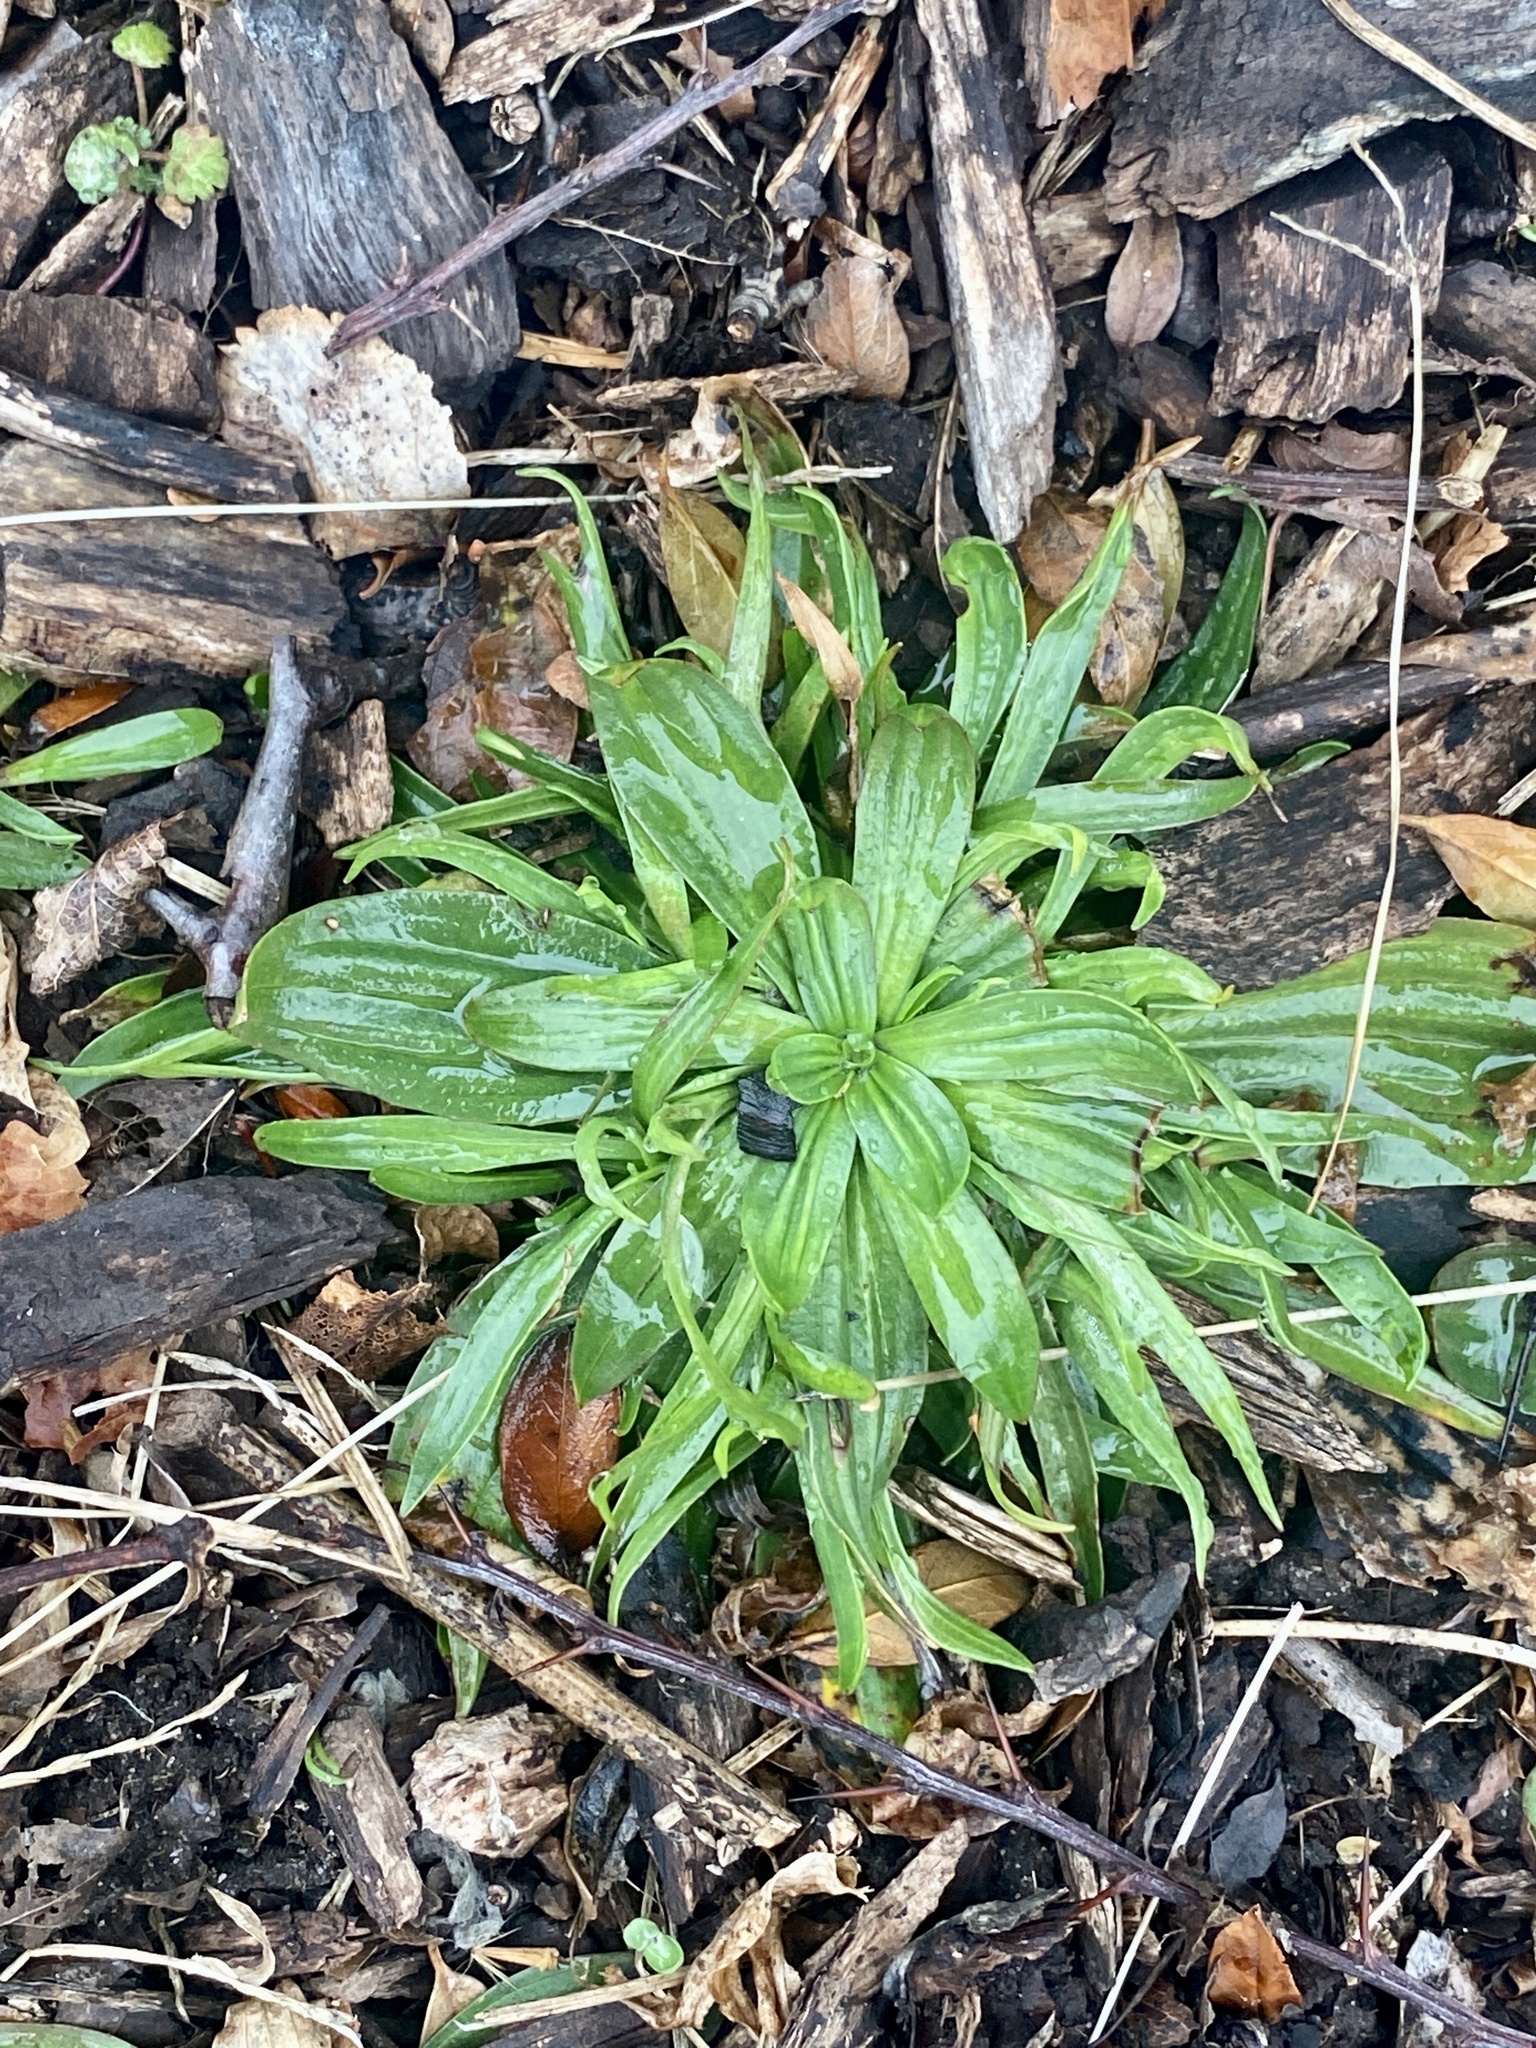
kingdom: Plantae
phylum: Tracheophyta
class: Magnoliopsida
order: Lamiales
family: Plantaginaceae
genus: Plantago
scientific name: Plantago lanceolata
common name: Ribwort plantain
